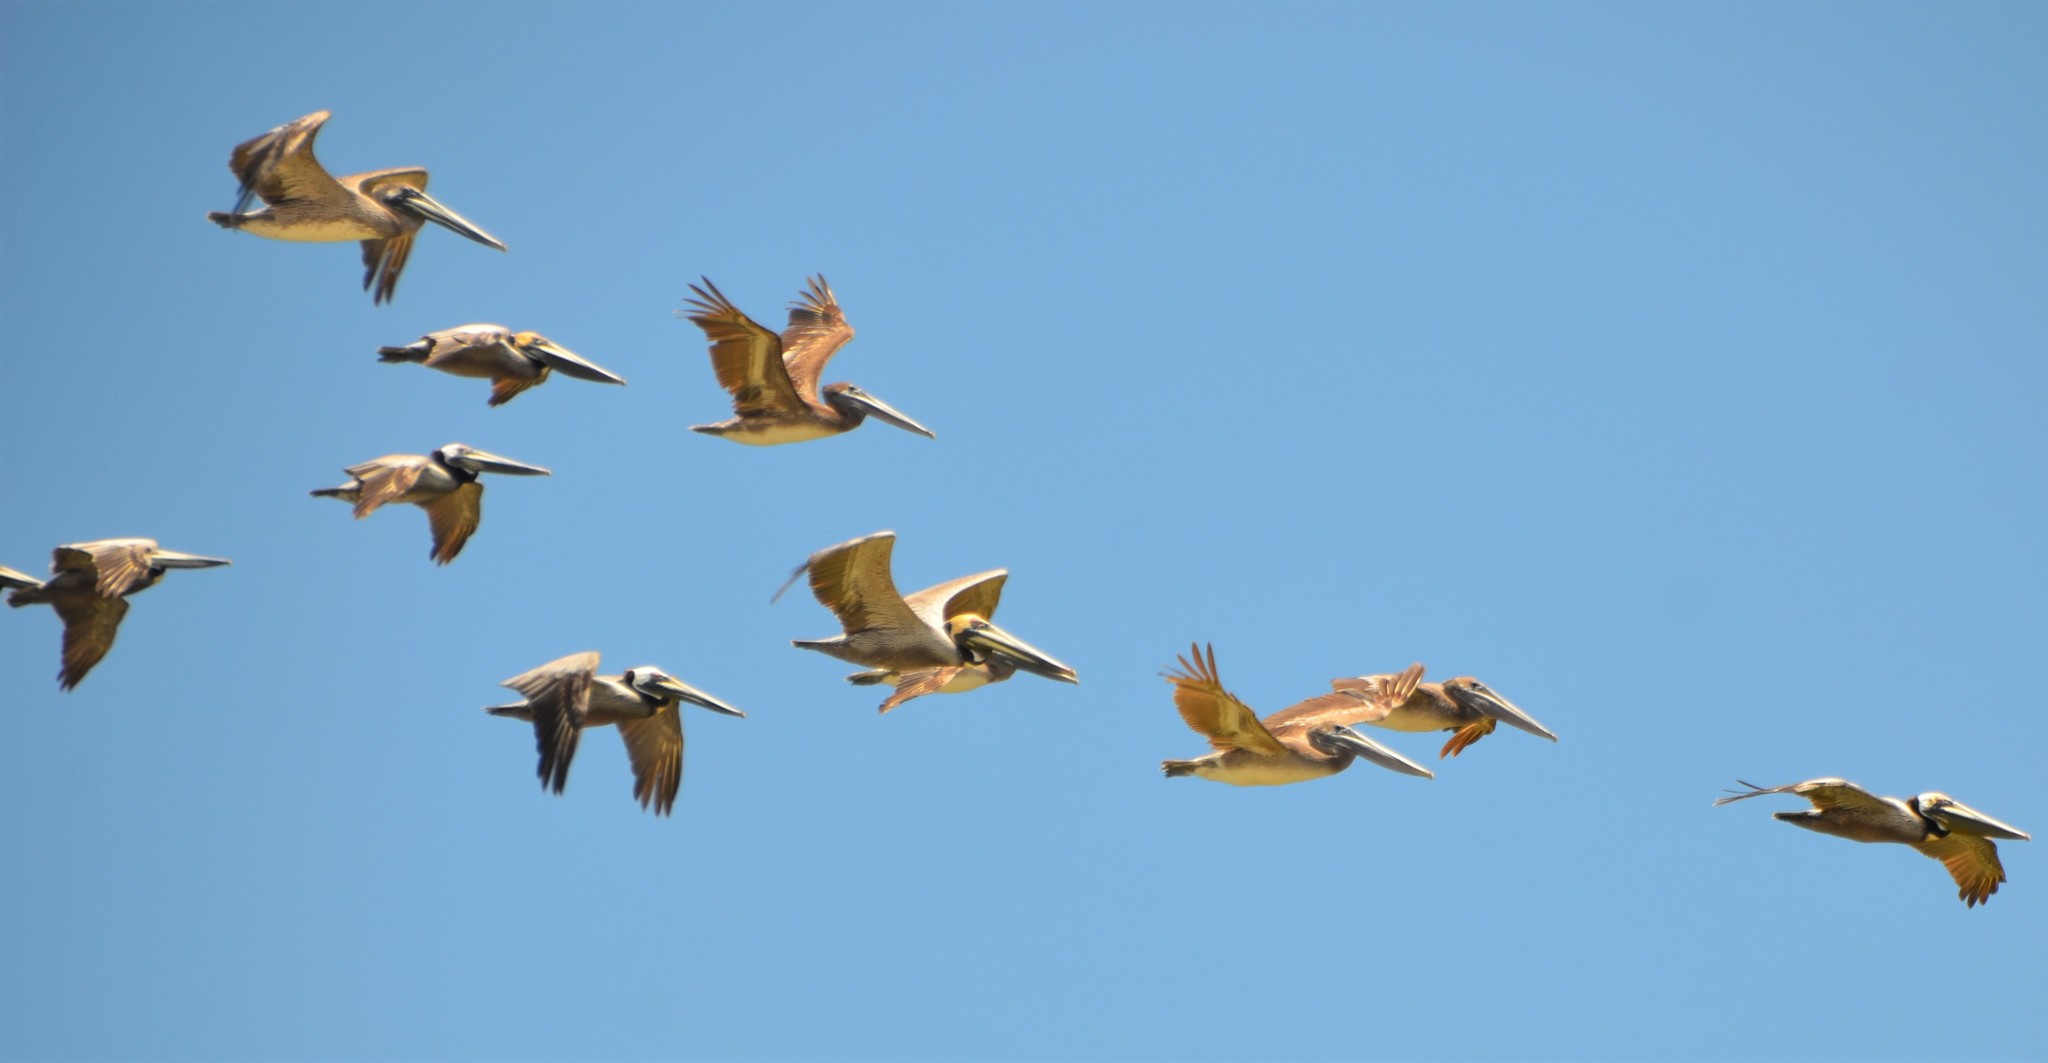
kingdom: Animalia
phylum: Chordata
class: Aves
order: Pelecaniformes
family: Pelecanidae
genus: Pelecanus
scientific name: Pelecanus occidentalis
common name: Brown pelican
